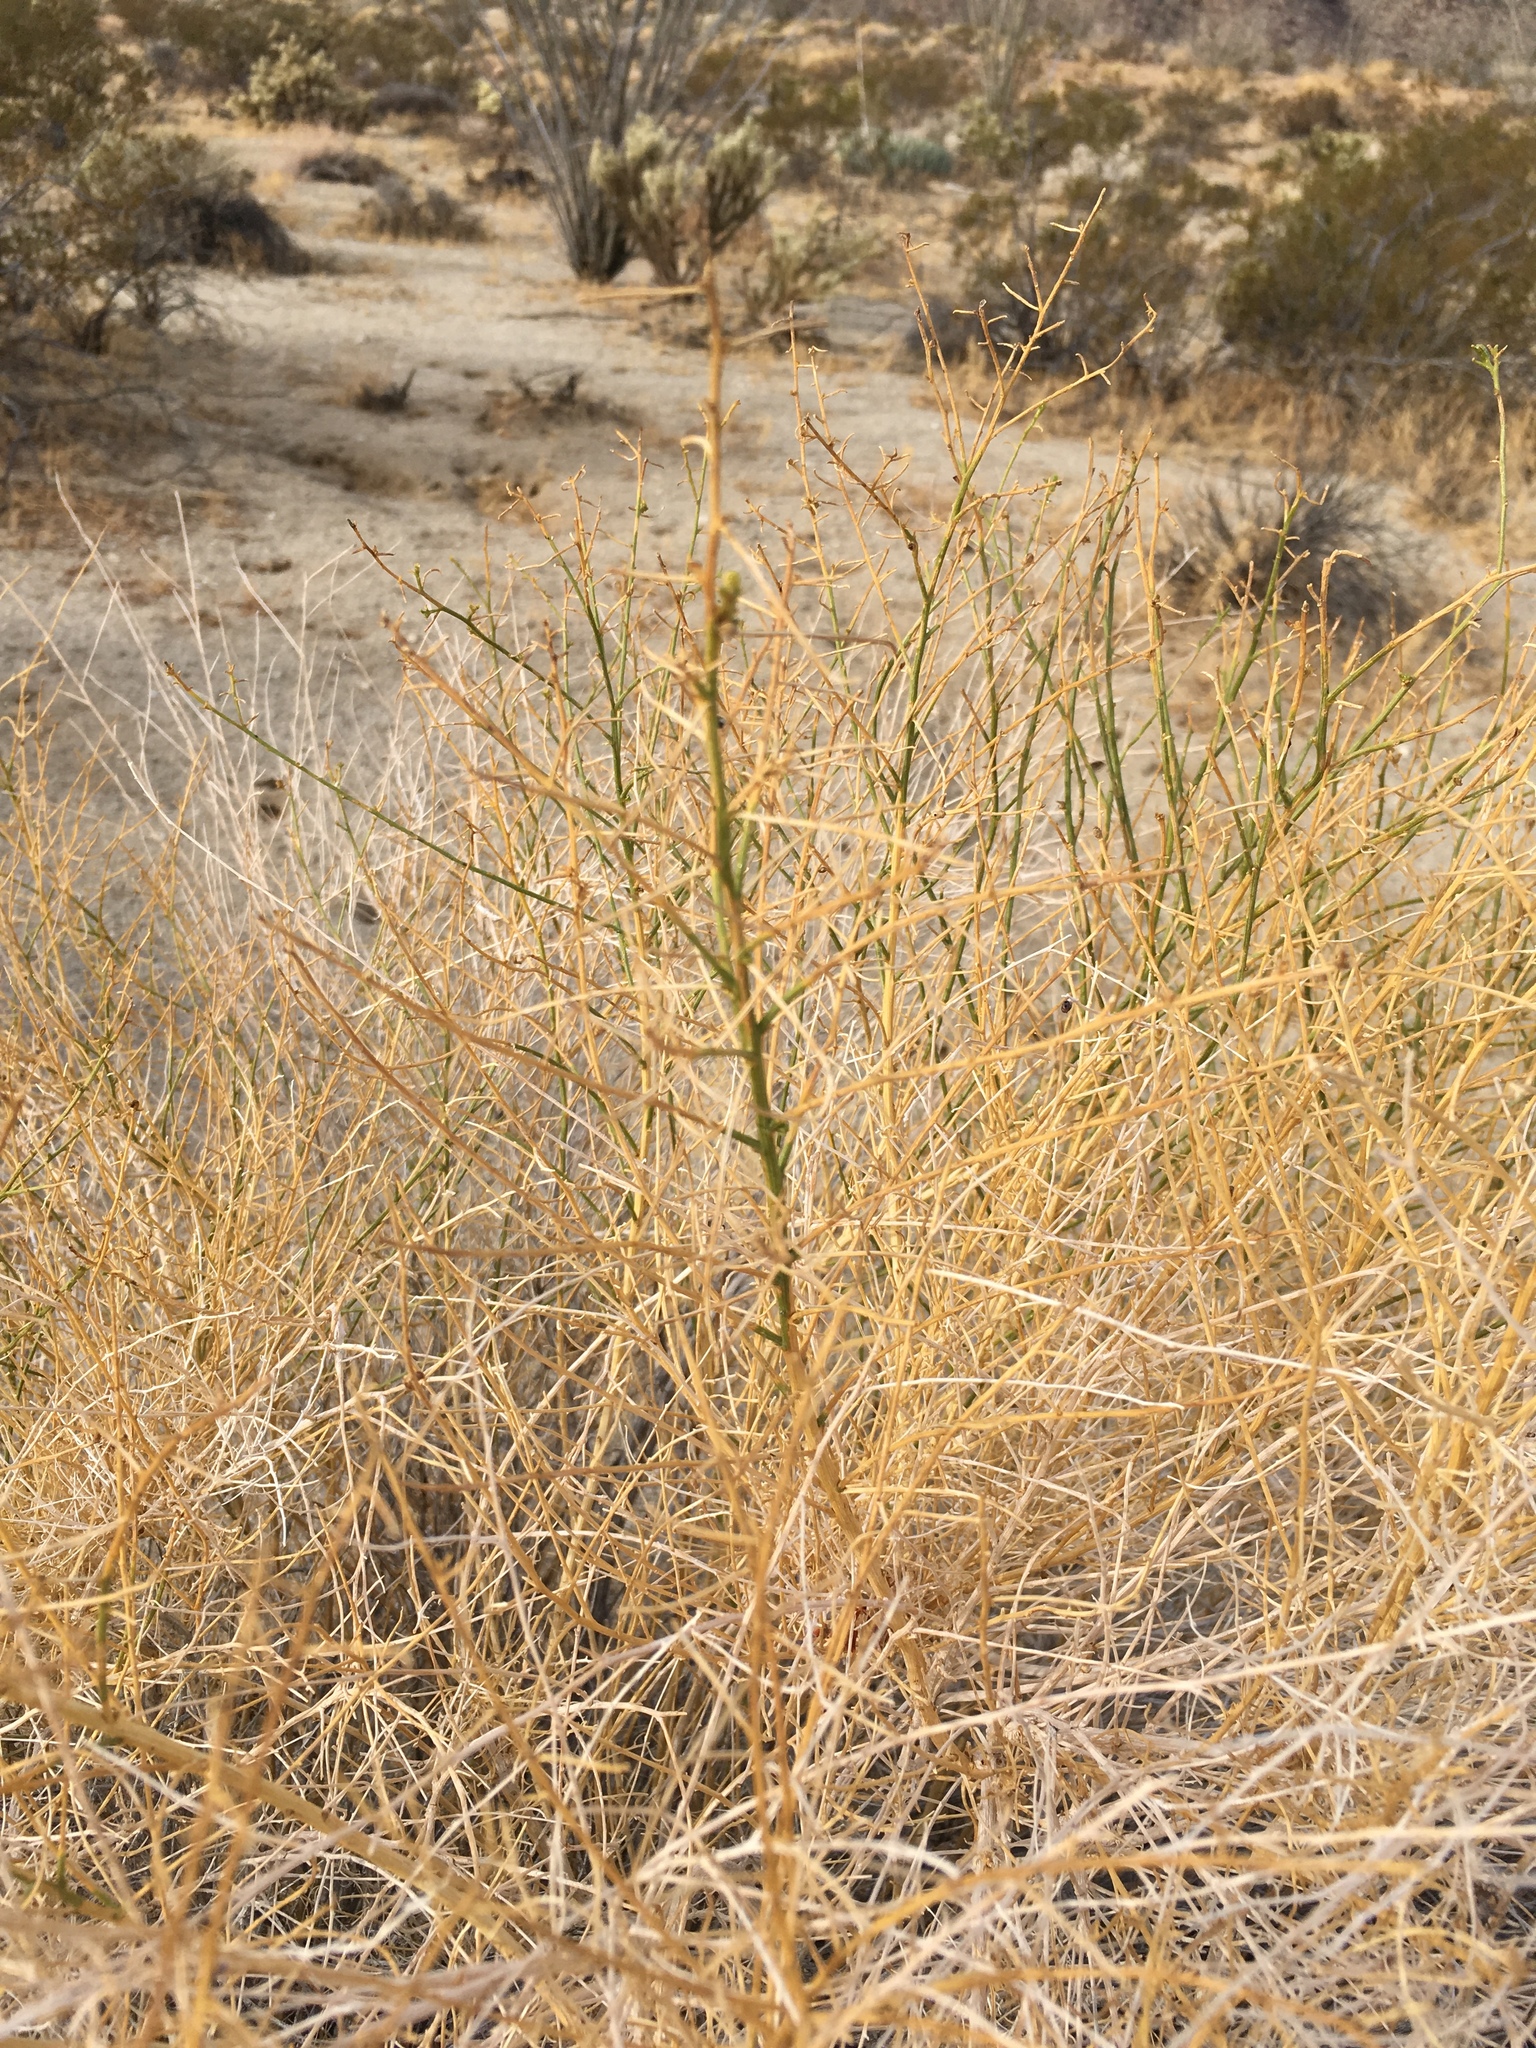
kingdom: Plantae
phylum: Tracheophyta
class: Magnoliopsida
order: Asterales
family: Asteraceae
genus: Ambrosia
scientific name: Ambrosia salsola
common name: Burrobrush
